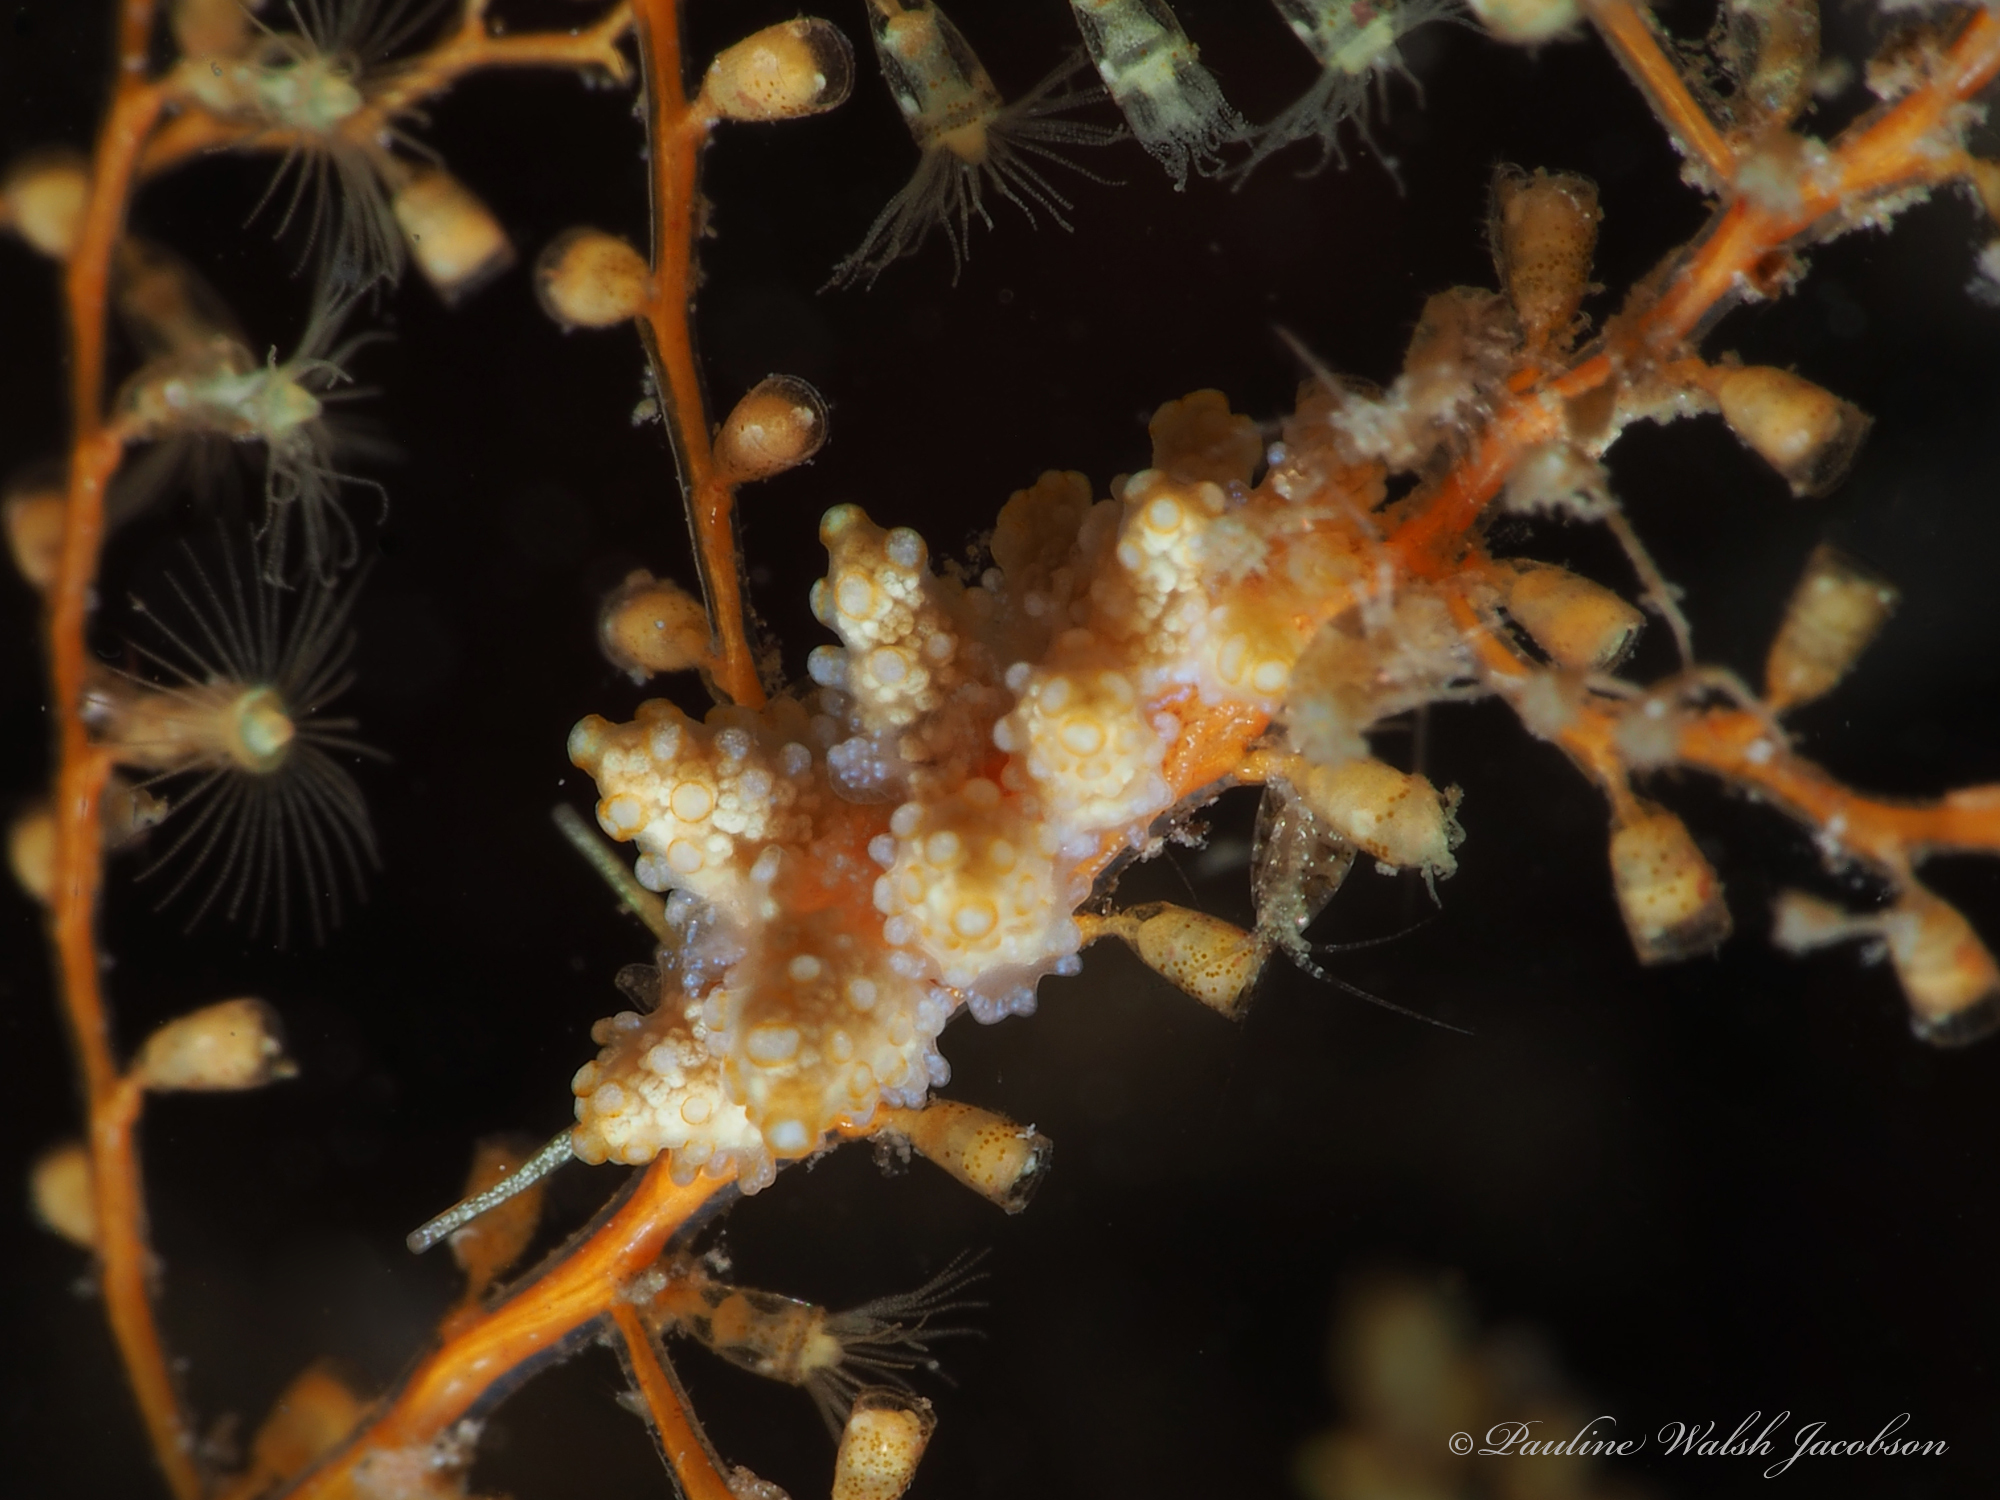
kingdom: Animalia
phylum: Mollusca
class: Gastropoda
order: Nudibranchia
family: Dotidae
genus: Doto
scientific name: Doto torrelavega
